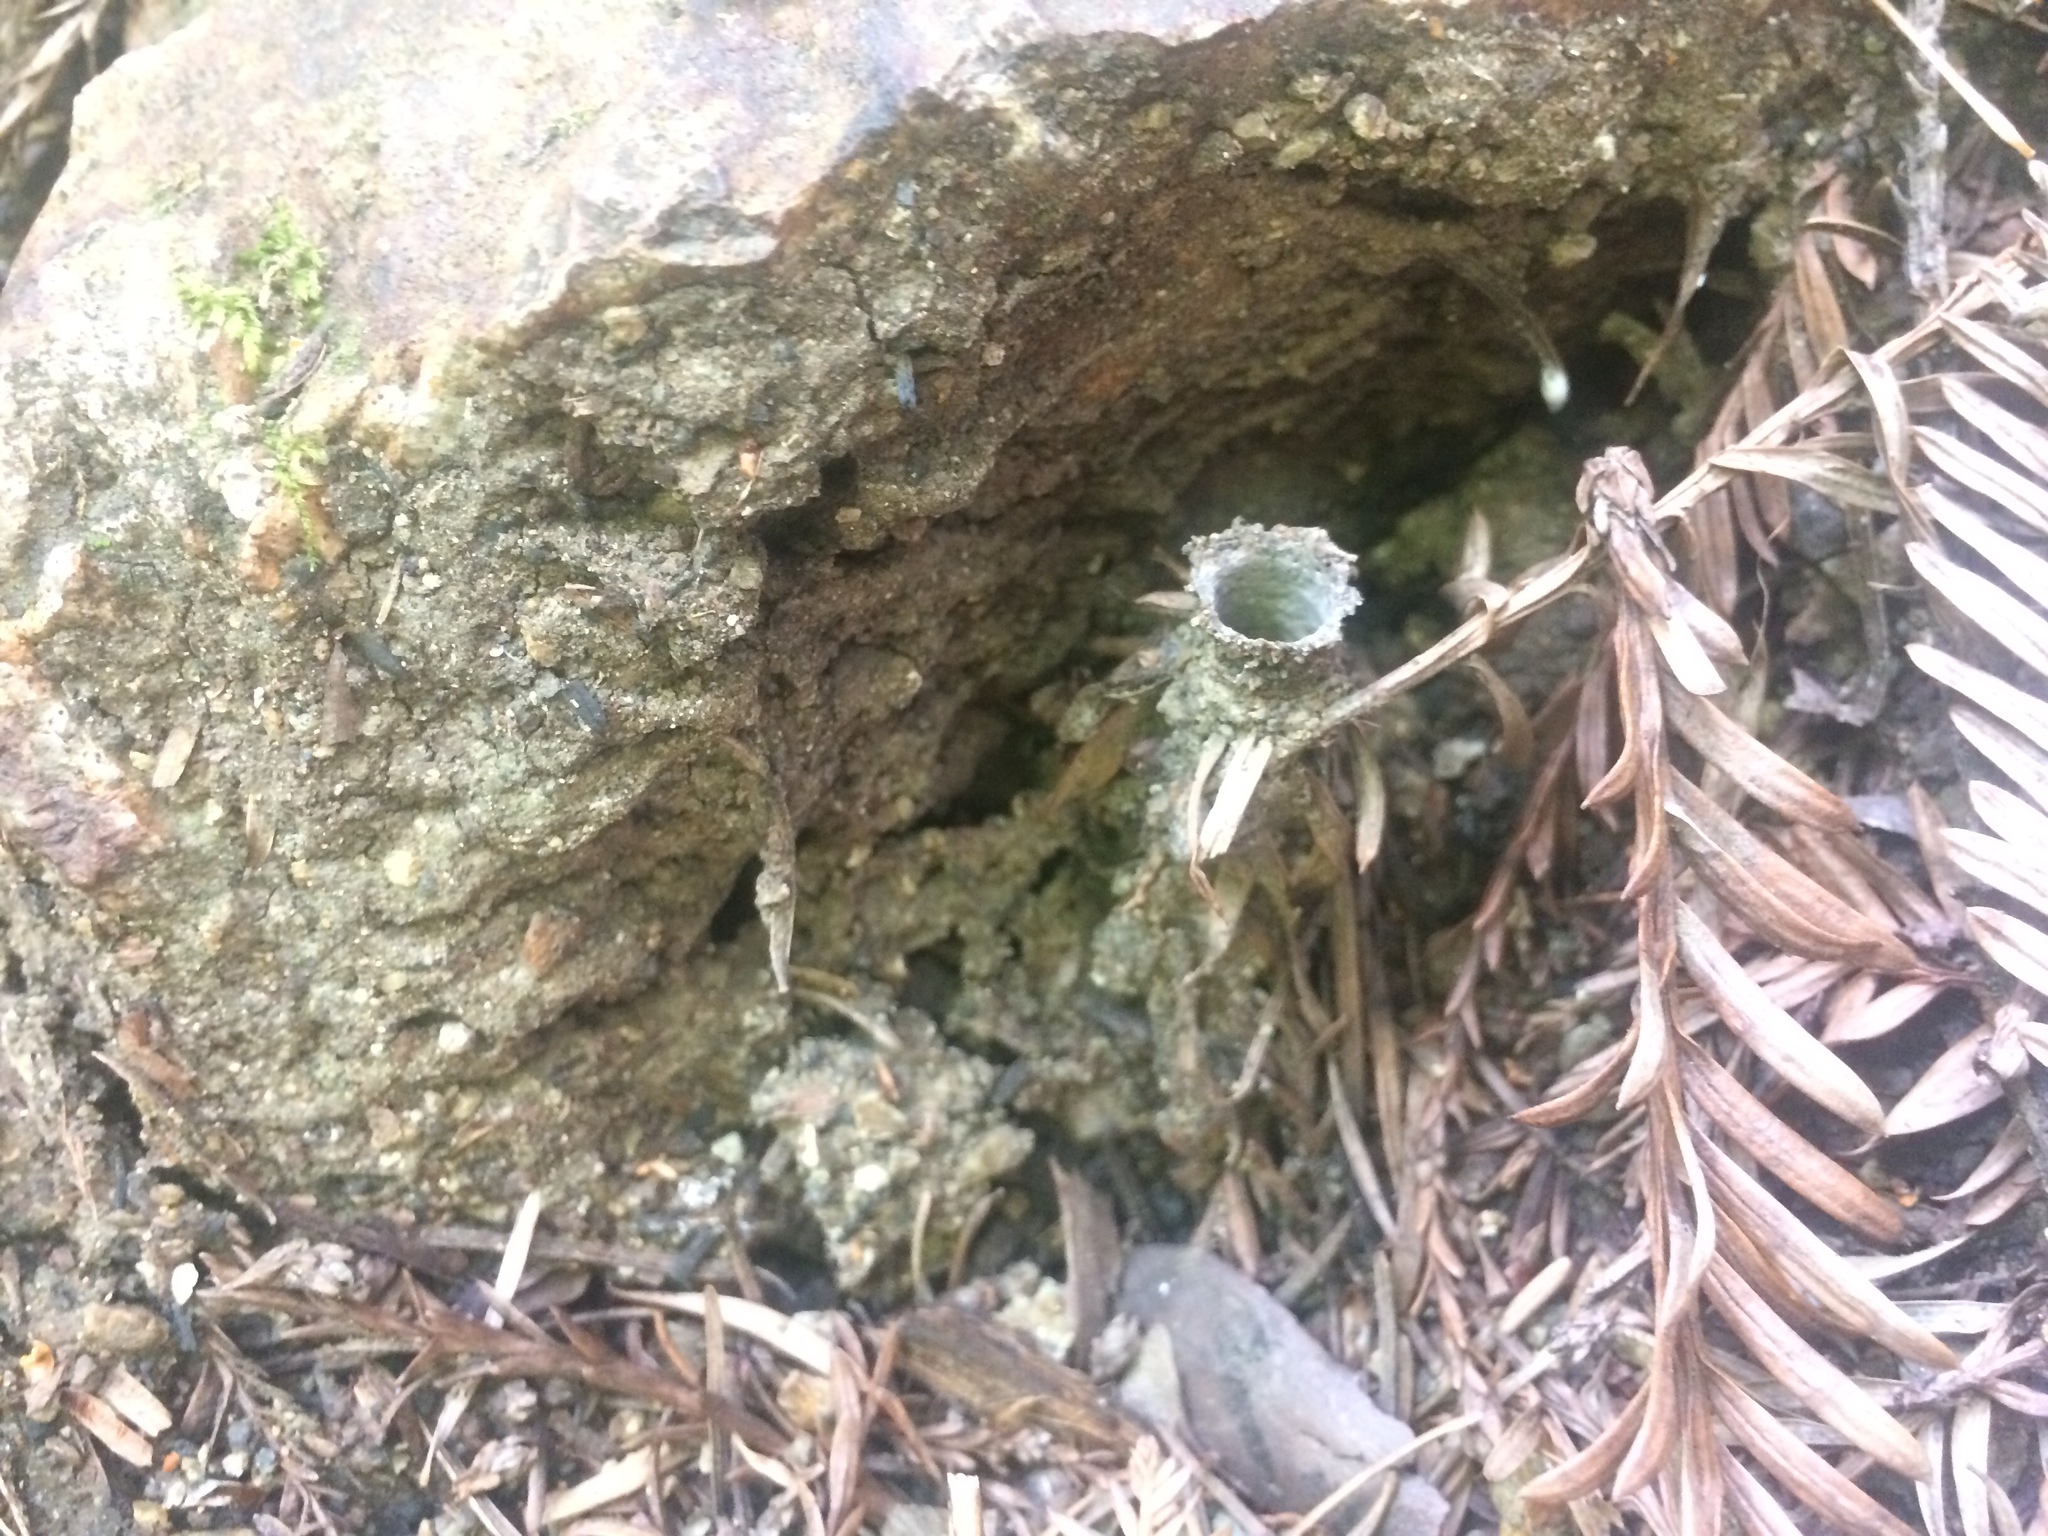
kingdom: Animalia
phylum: Arthropoda
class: Arachnida
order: Araneae
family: Antrodiaetidae
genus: Atypoides
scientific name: Atypoides riversi
